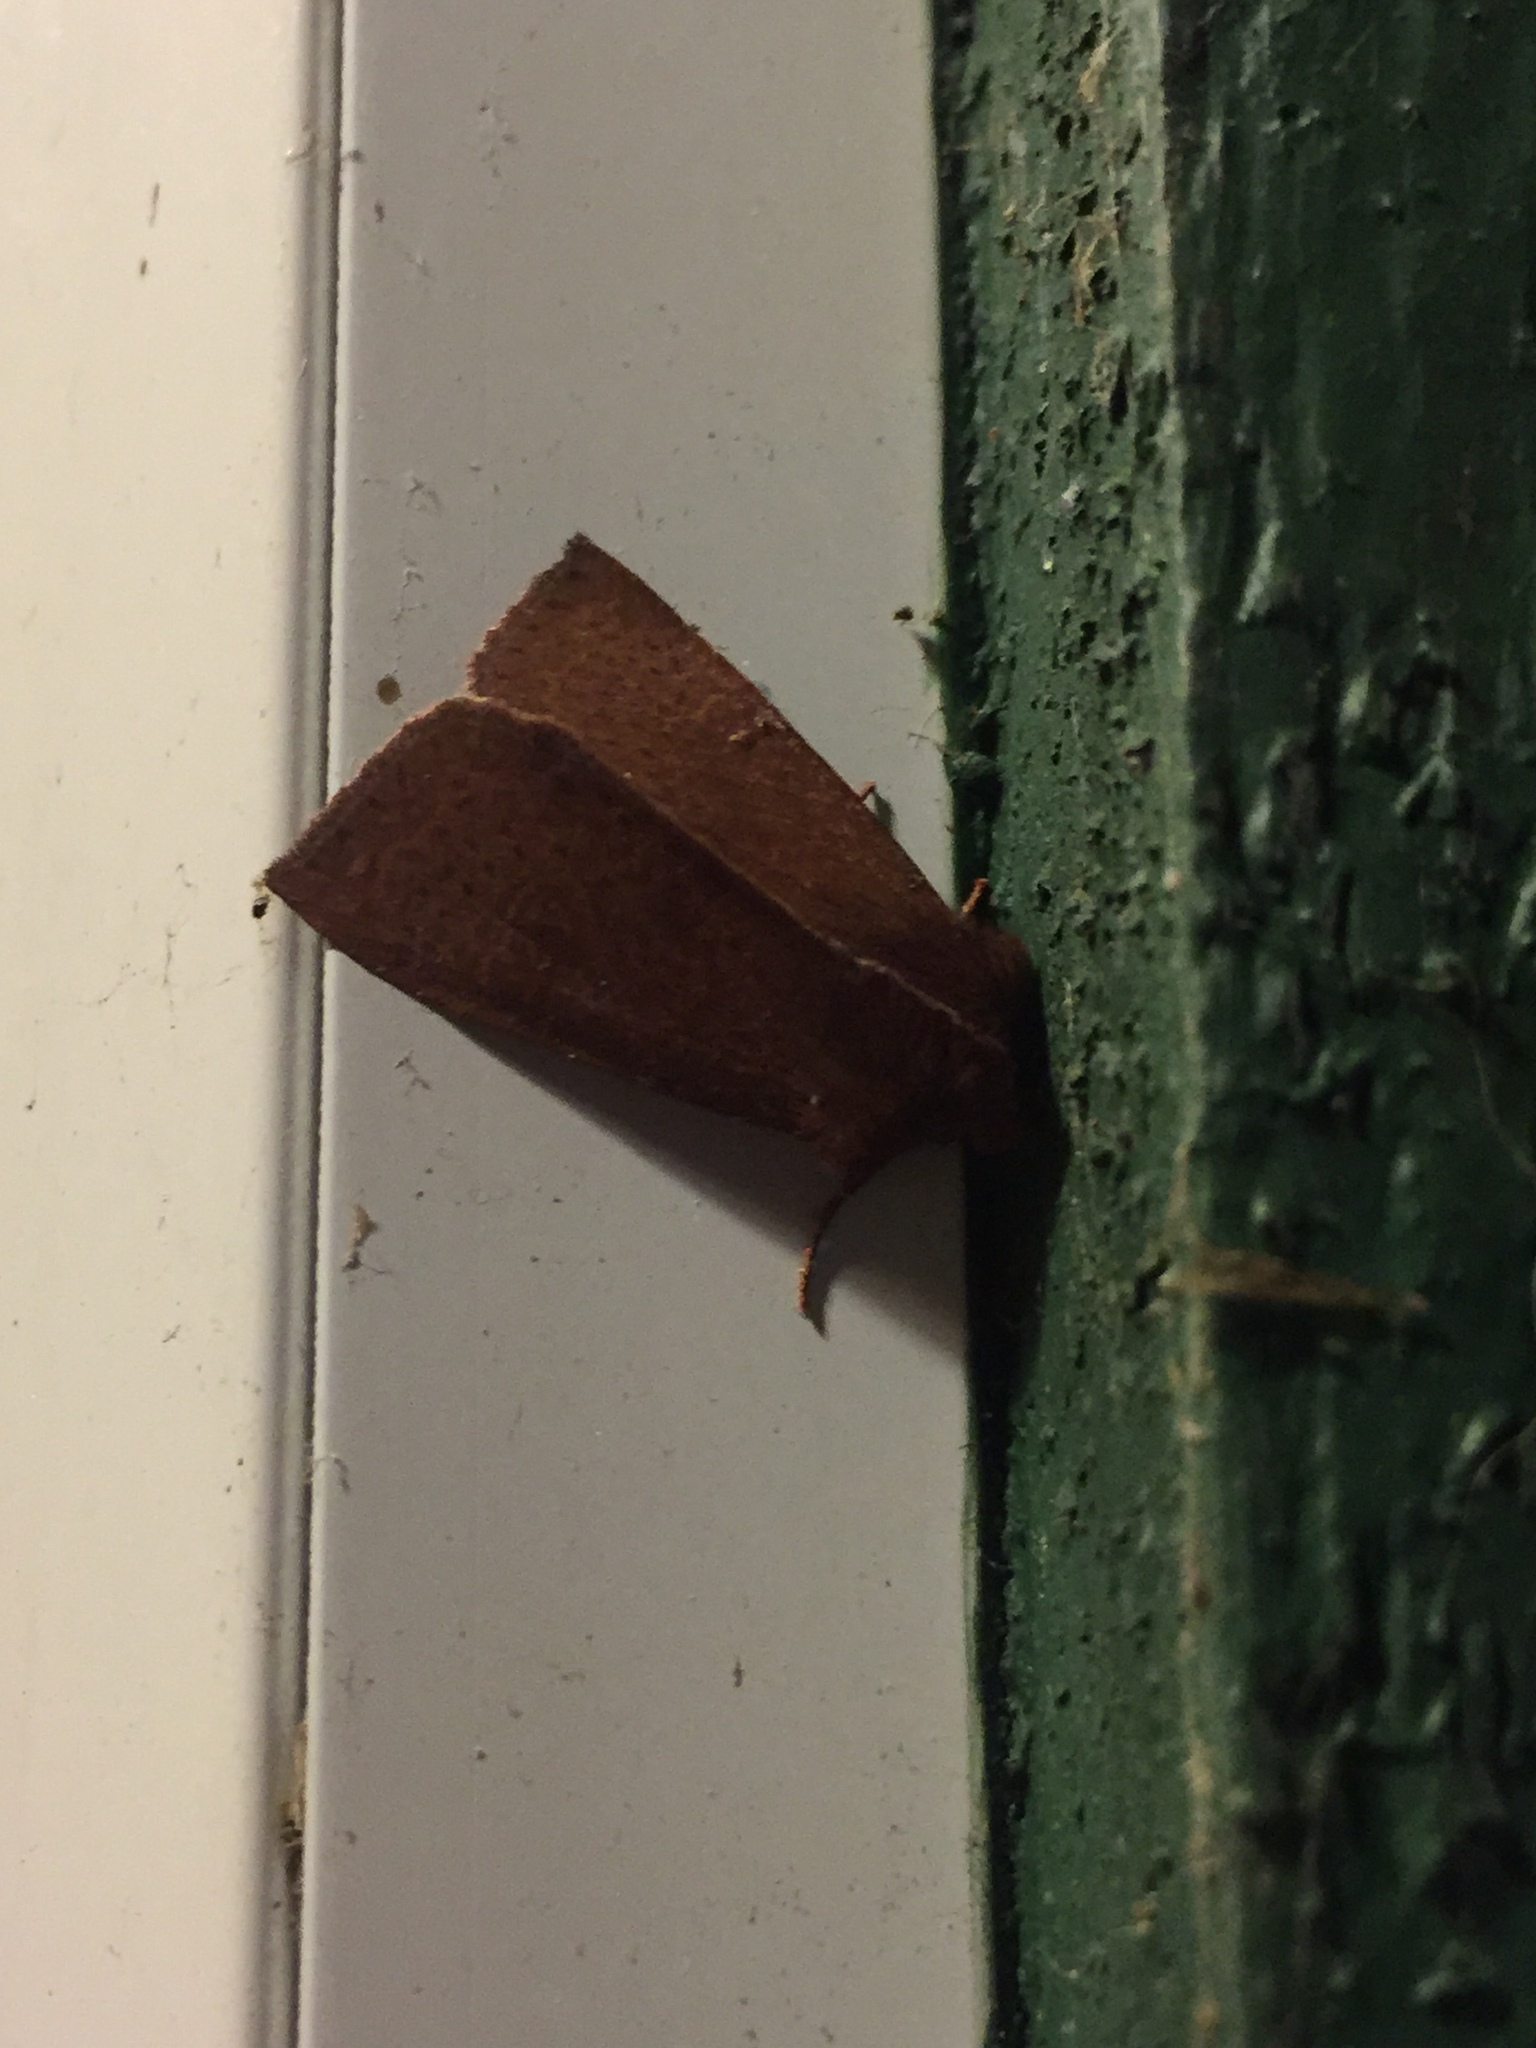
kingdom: Animalia
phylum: Arthropoda
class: Insecta
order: Lepidoptera
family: Noctuidae
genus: Orthosia
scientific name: Orthosia transparens
